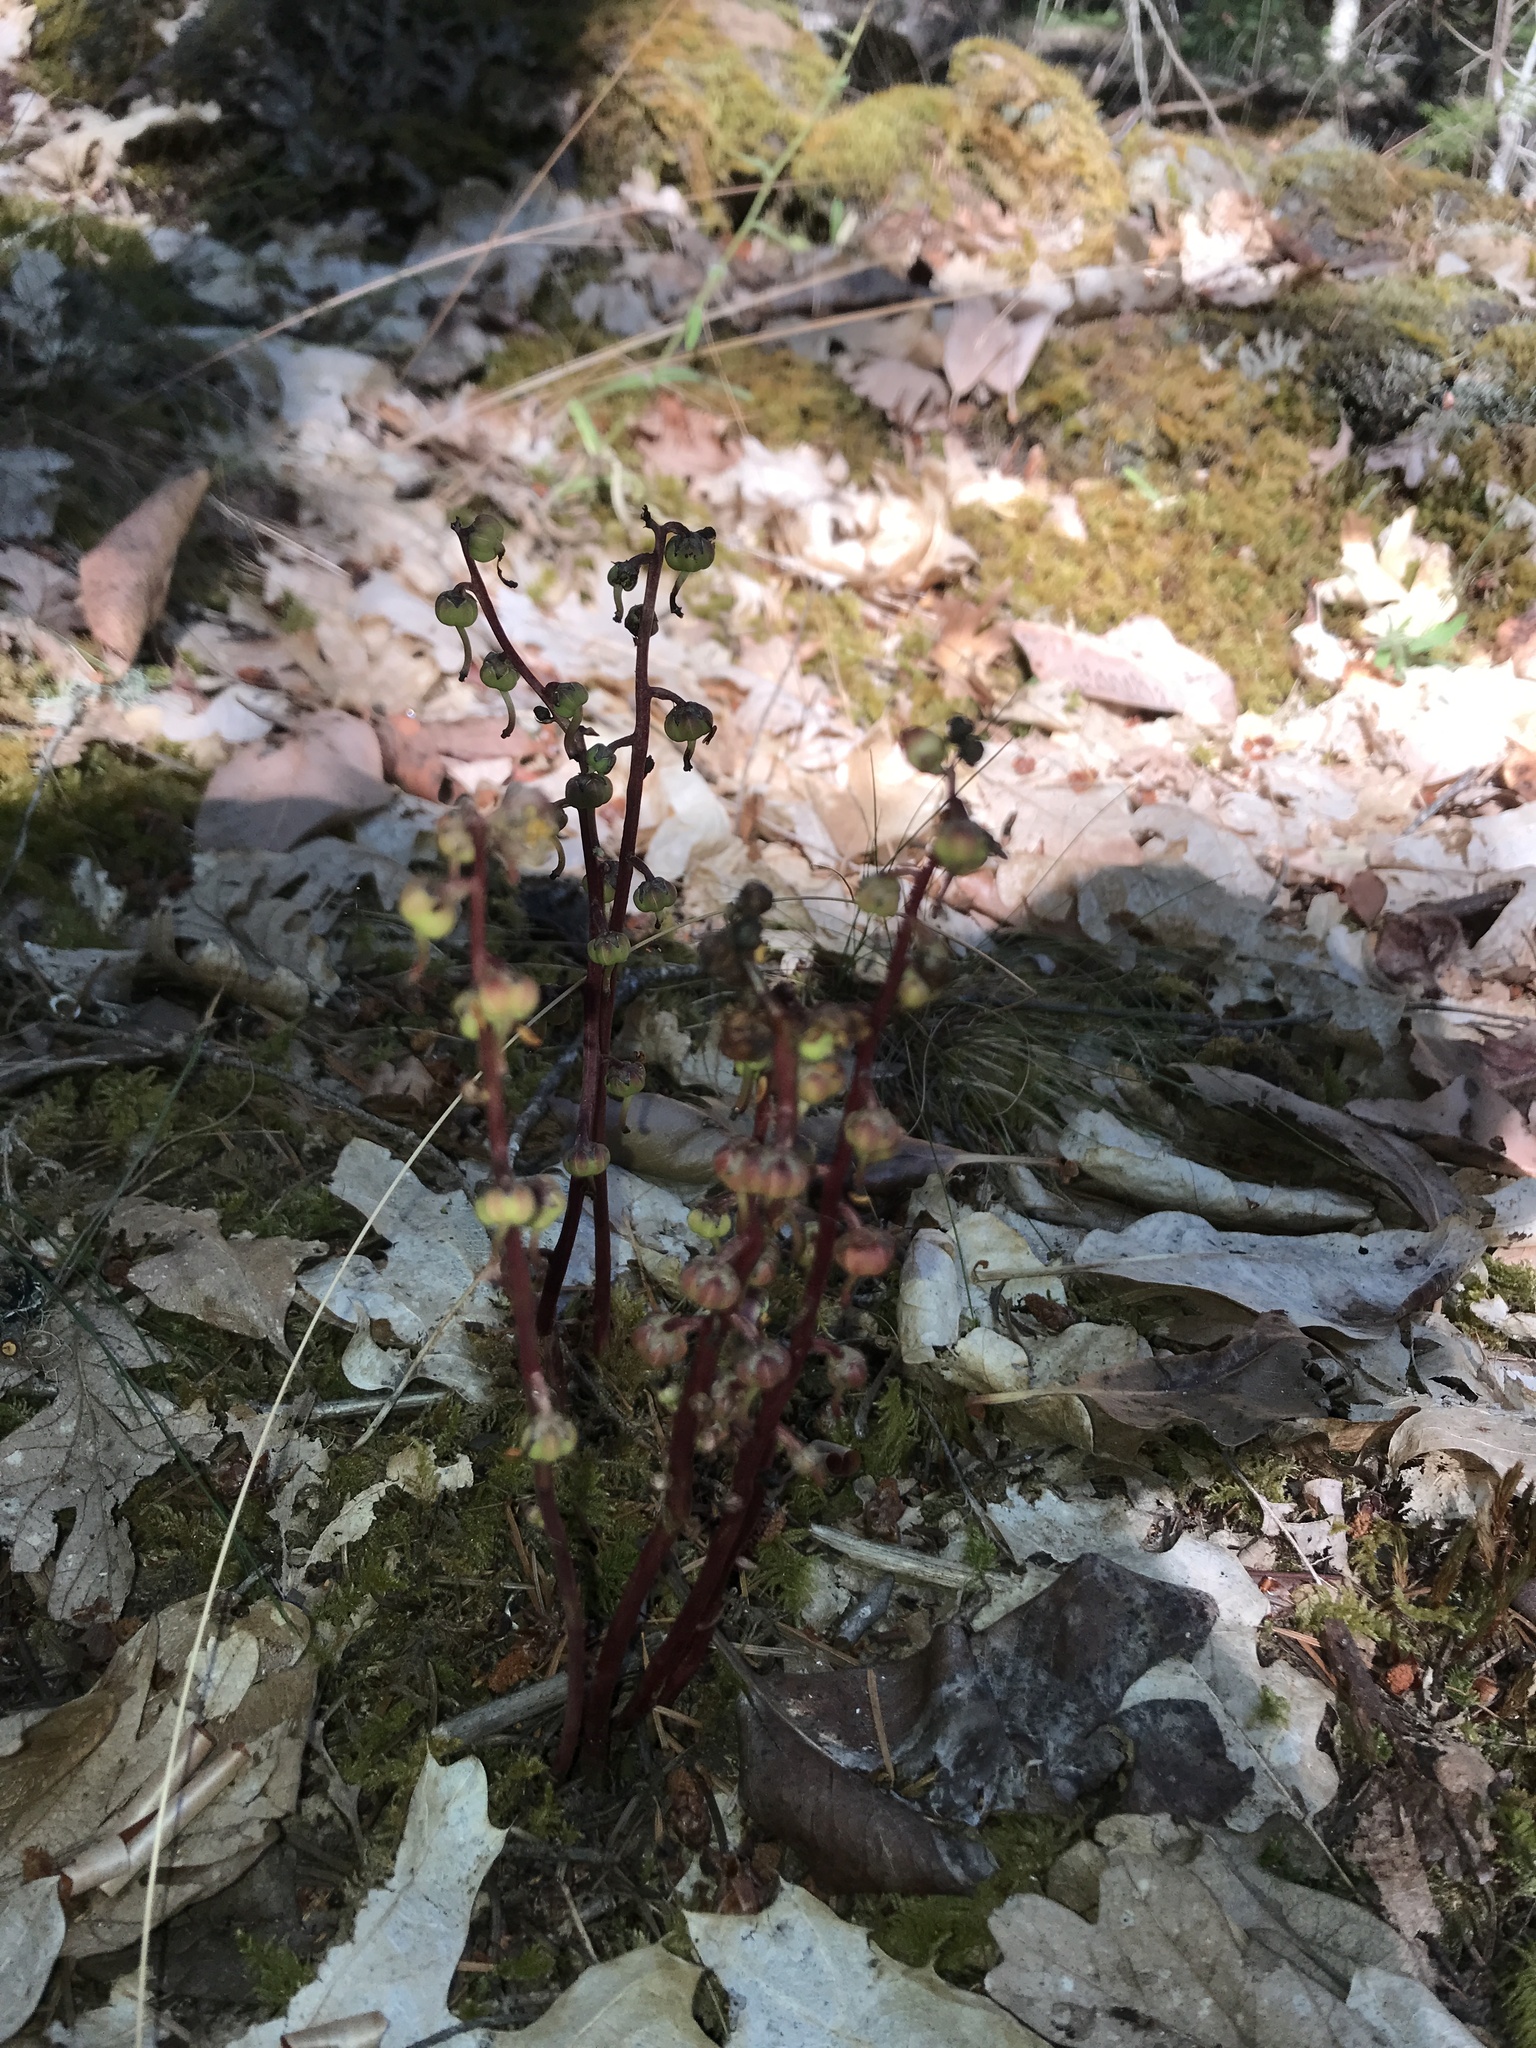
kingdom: Plantae
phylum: Tracheophyta
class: Magnoliopsida
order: Ericales
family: Ericaceae
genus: Pyrola
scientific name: Pyrola aphylla
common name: Leafless wintergreen
